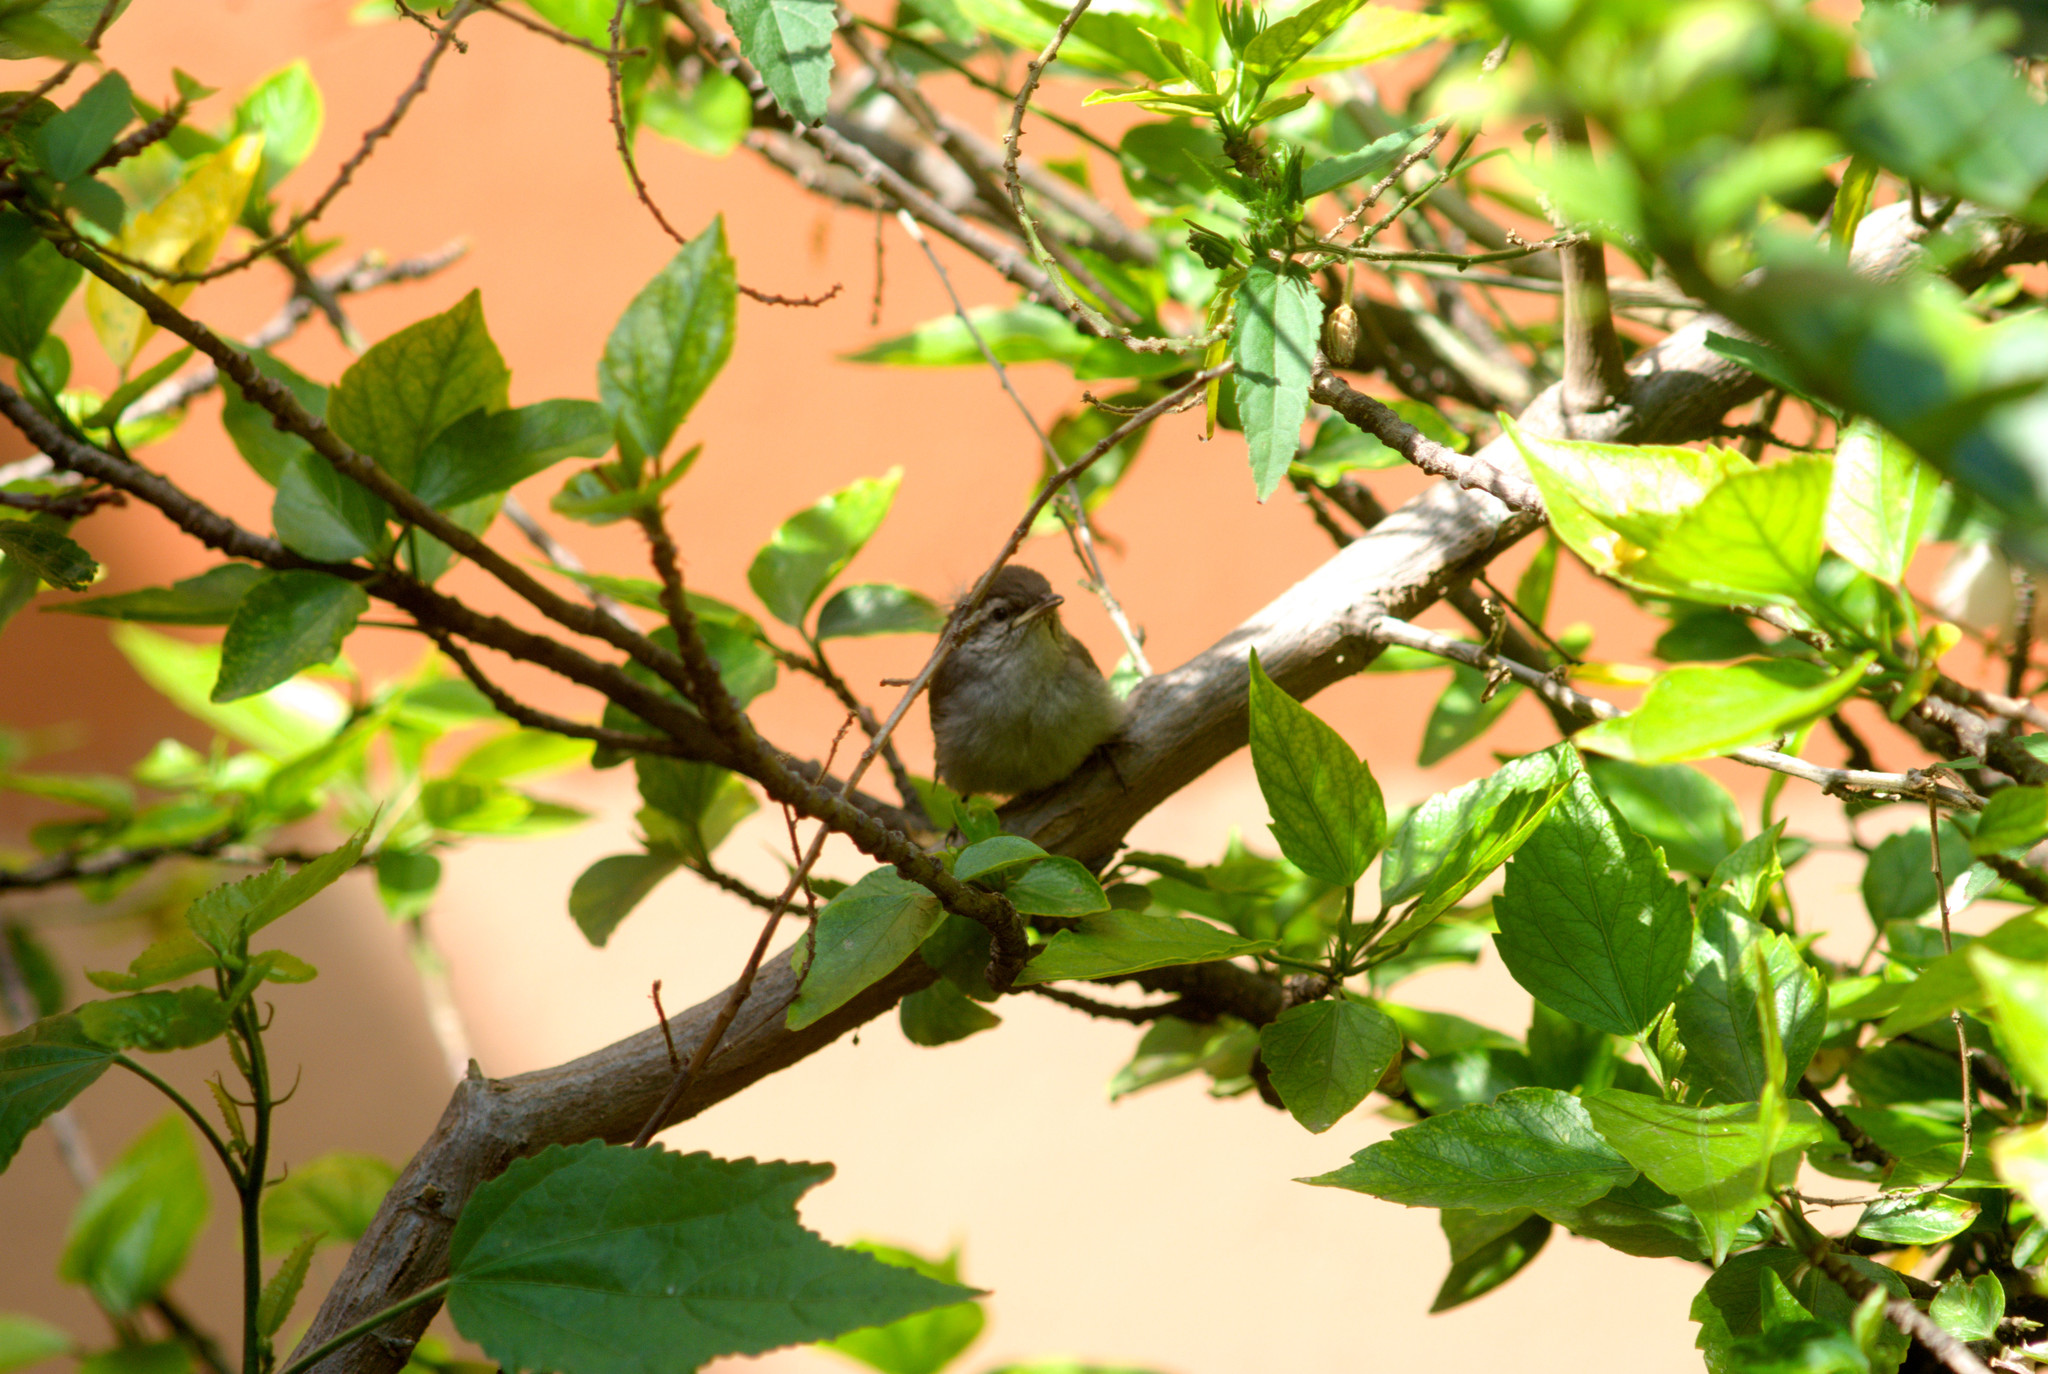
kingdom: Animalia
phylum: Chordata
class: Aves
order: Passeriformes
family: Troglodytidae
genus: Thryomanes
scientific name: Thryomanes bewickii
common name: Bewick's wren
